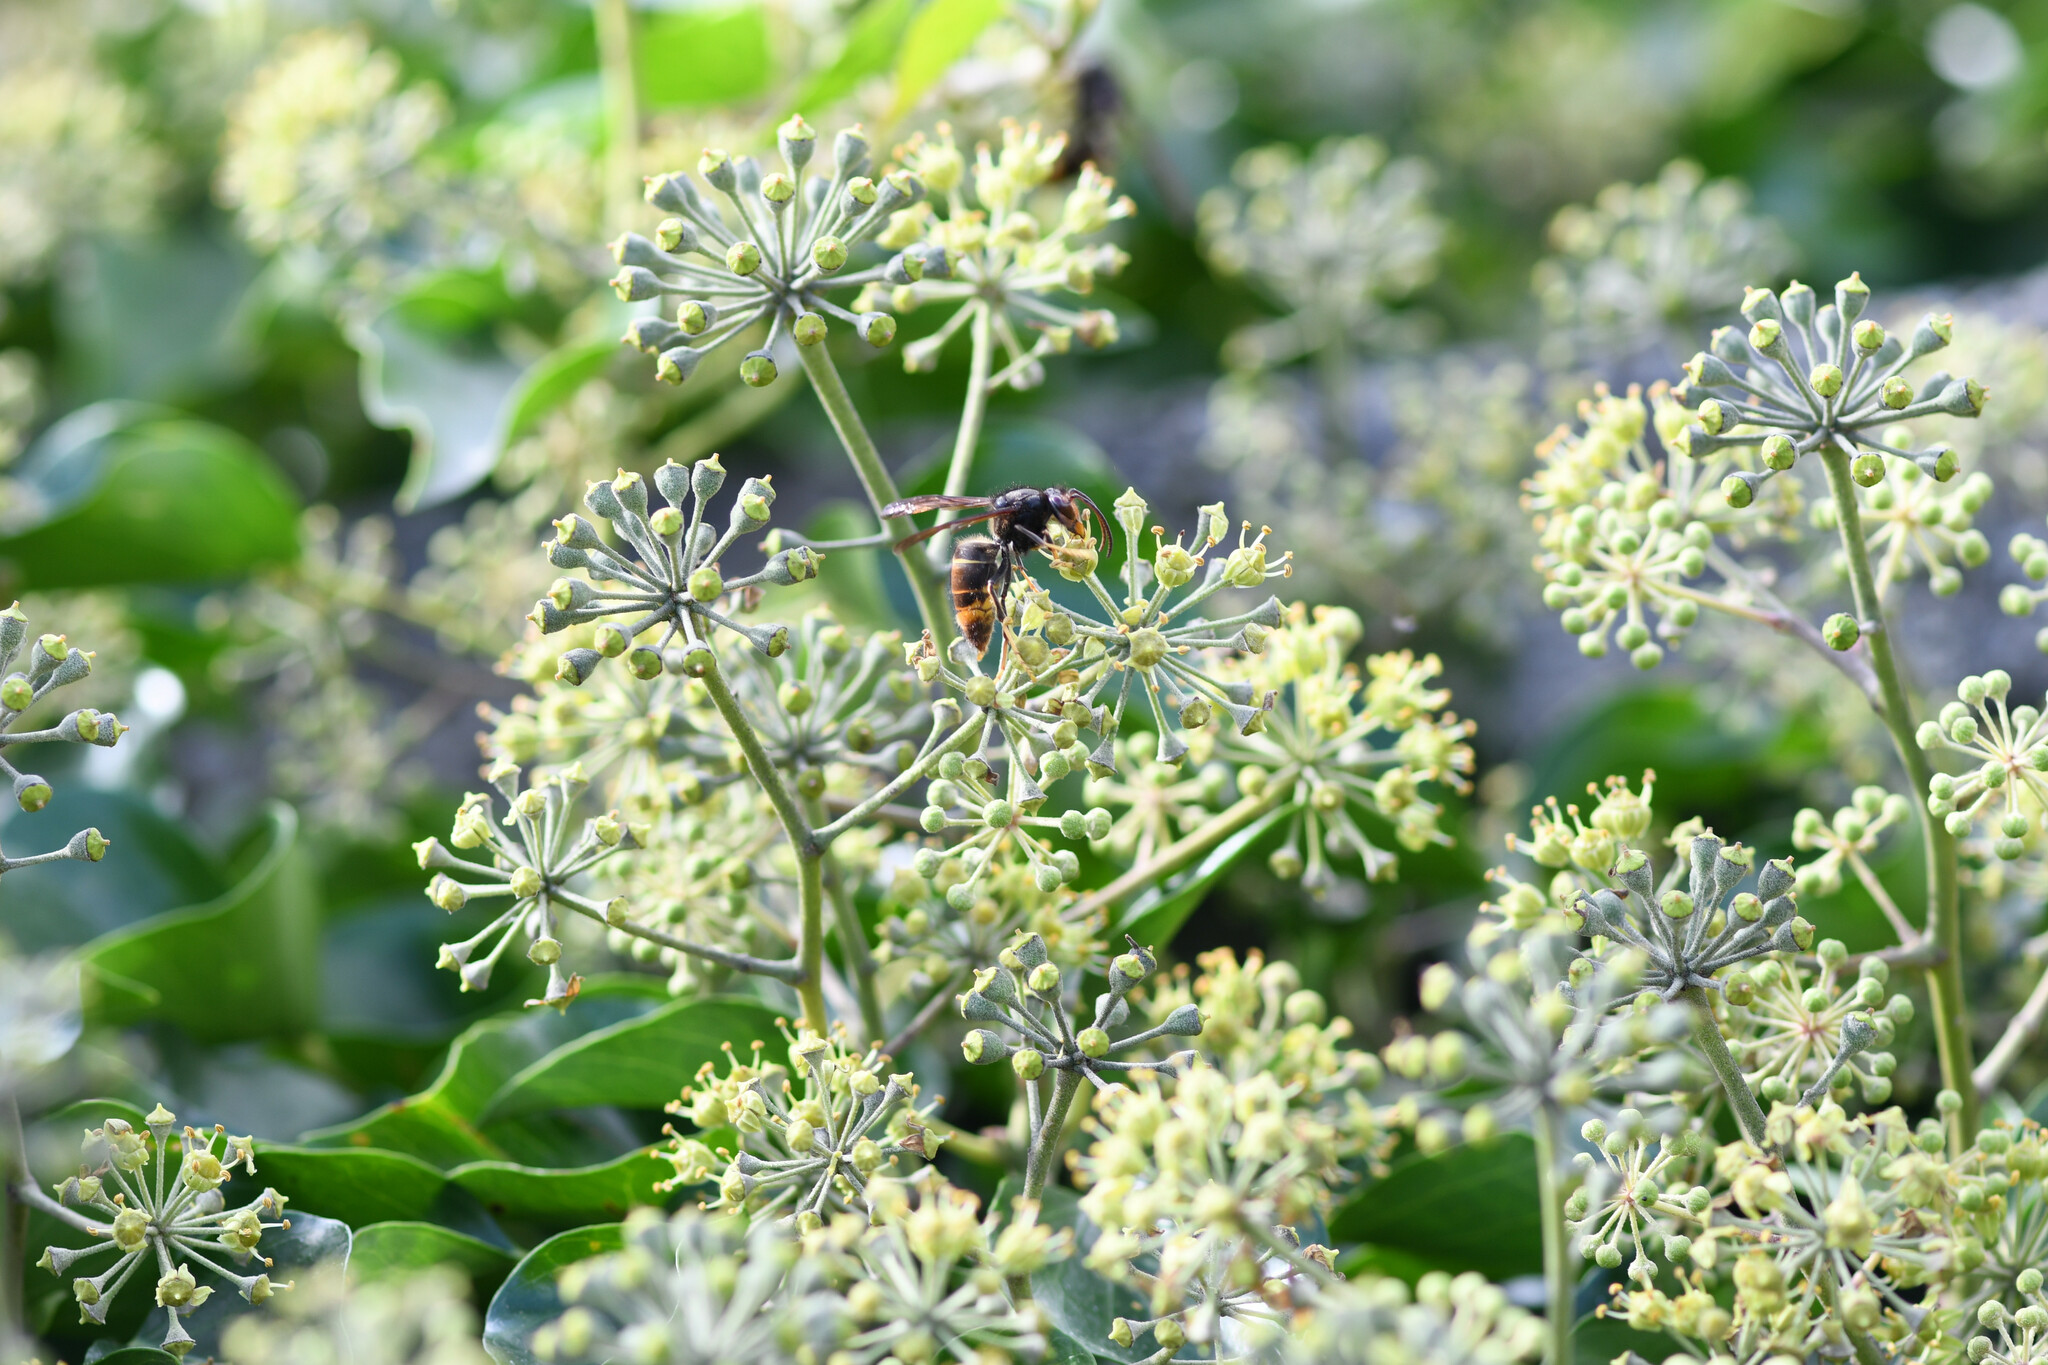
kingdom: Animalia
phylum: Arthropoda
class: Insecta
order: Hymenoptera
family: Vespidae
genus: Vespa
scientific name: Vespa velutina
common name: Asian hornet
